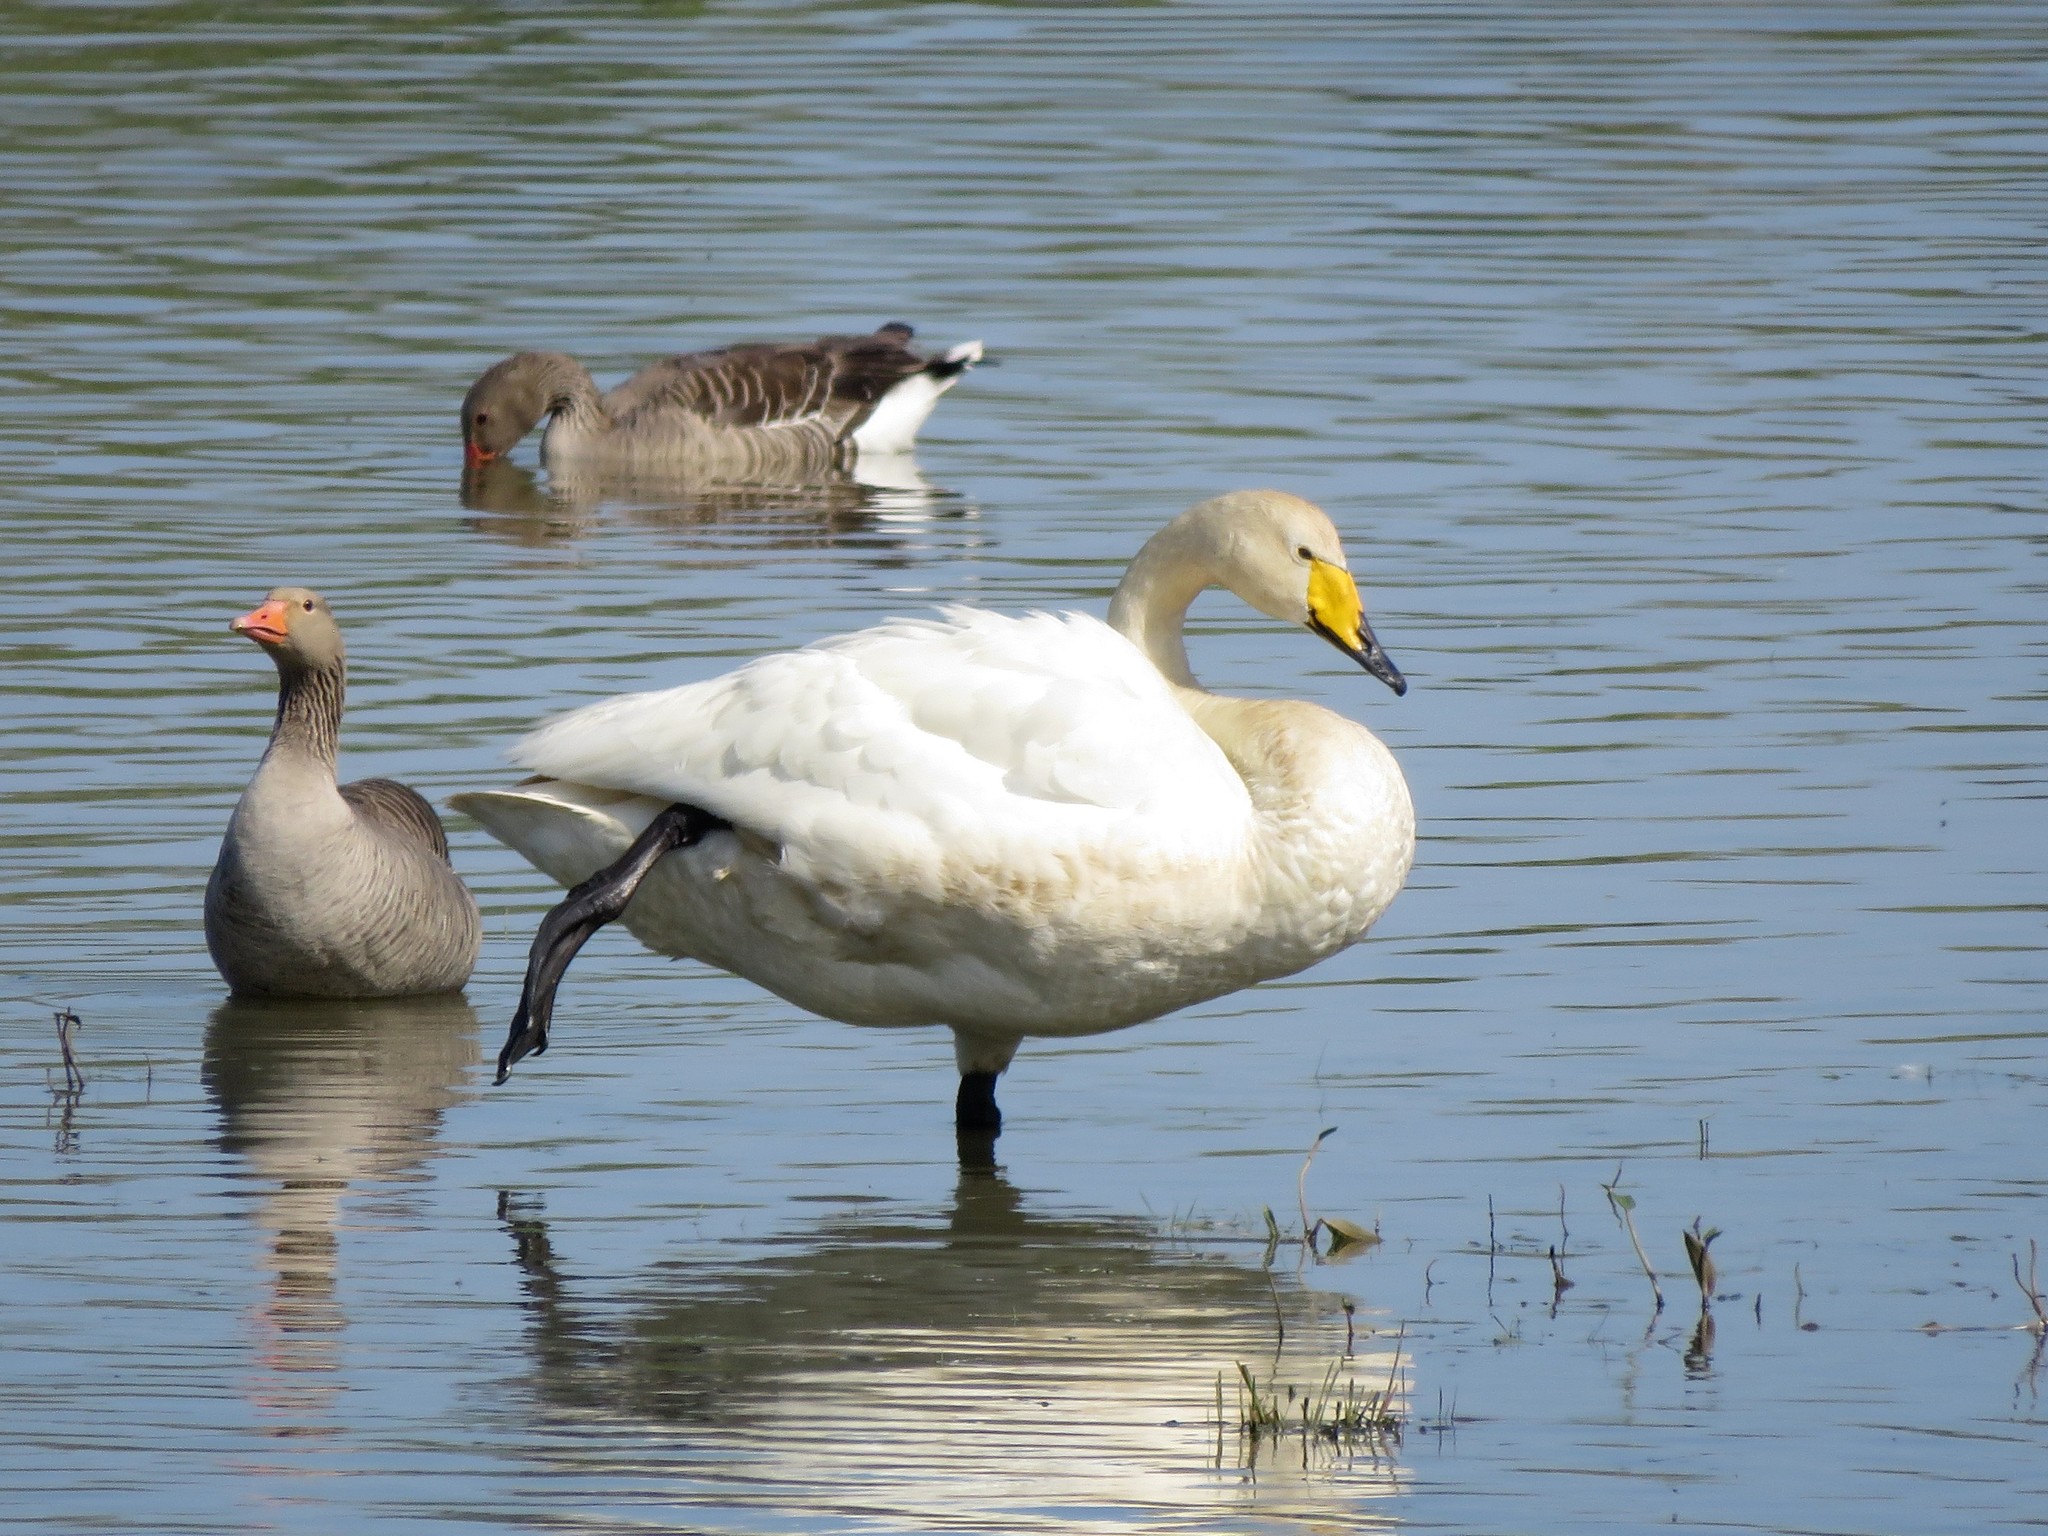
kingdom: Animalia
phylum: Chordata
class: Aves
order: Anseriformes
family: Anatidae
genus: Cygnus
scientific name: Cygnus cygnus
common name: Whooper swan
